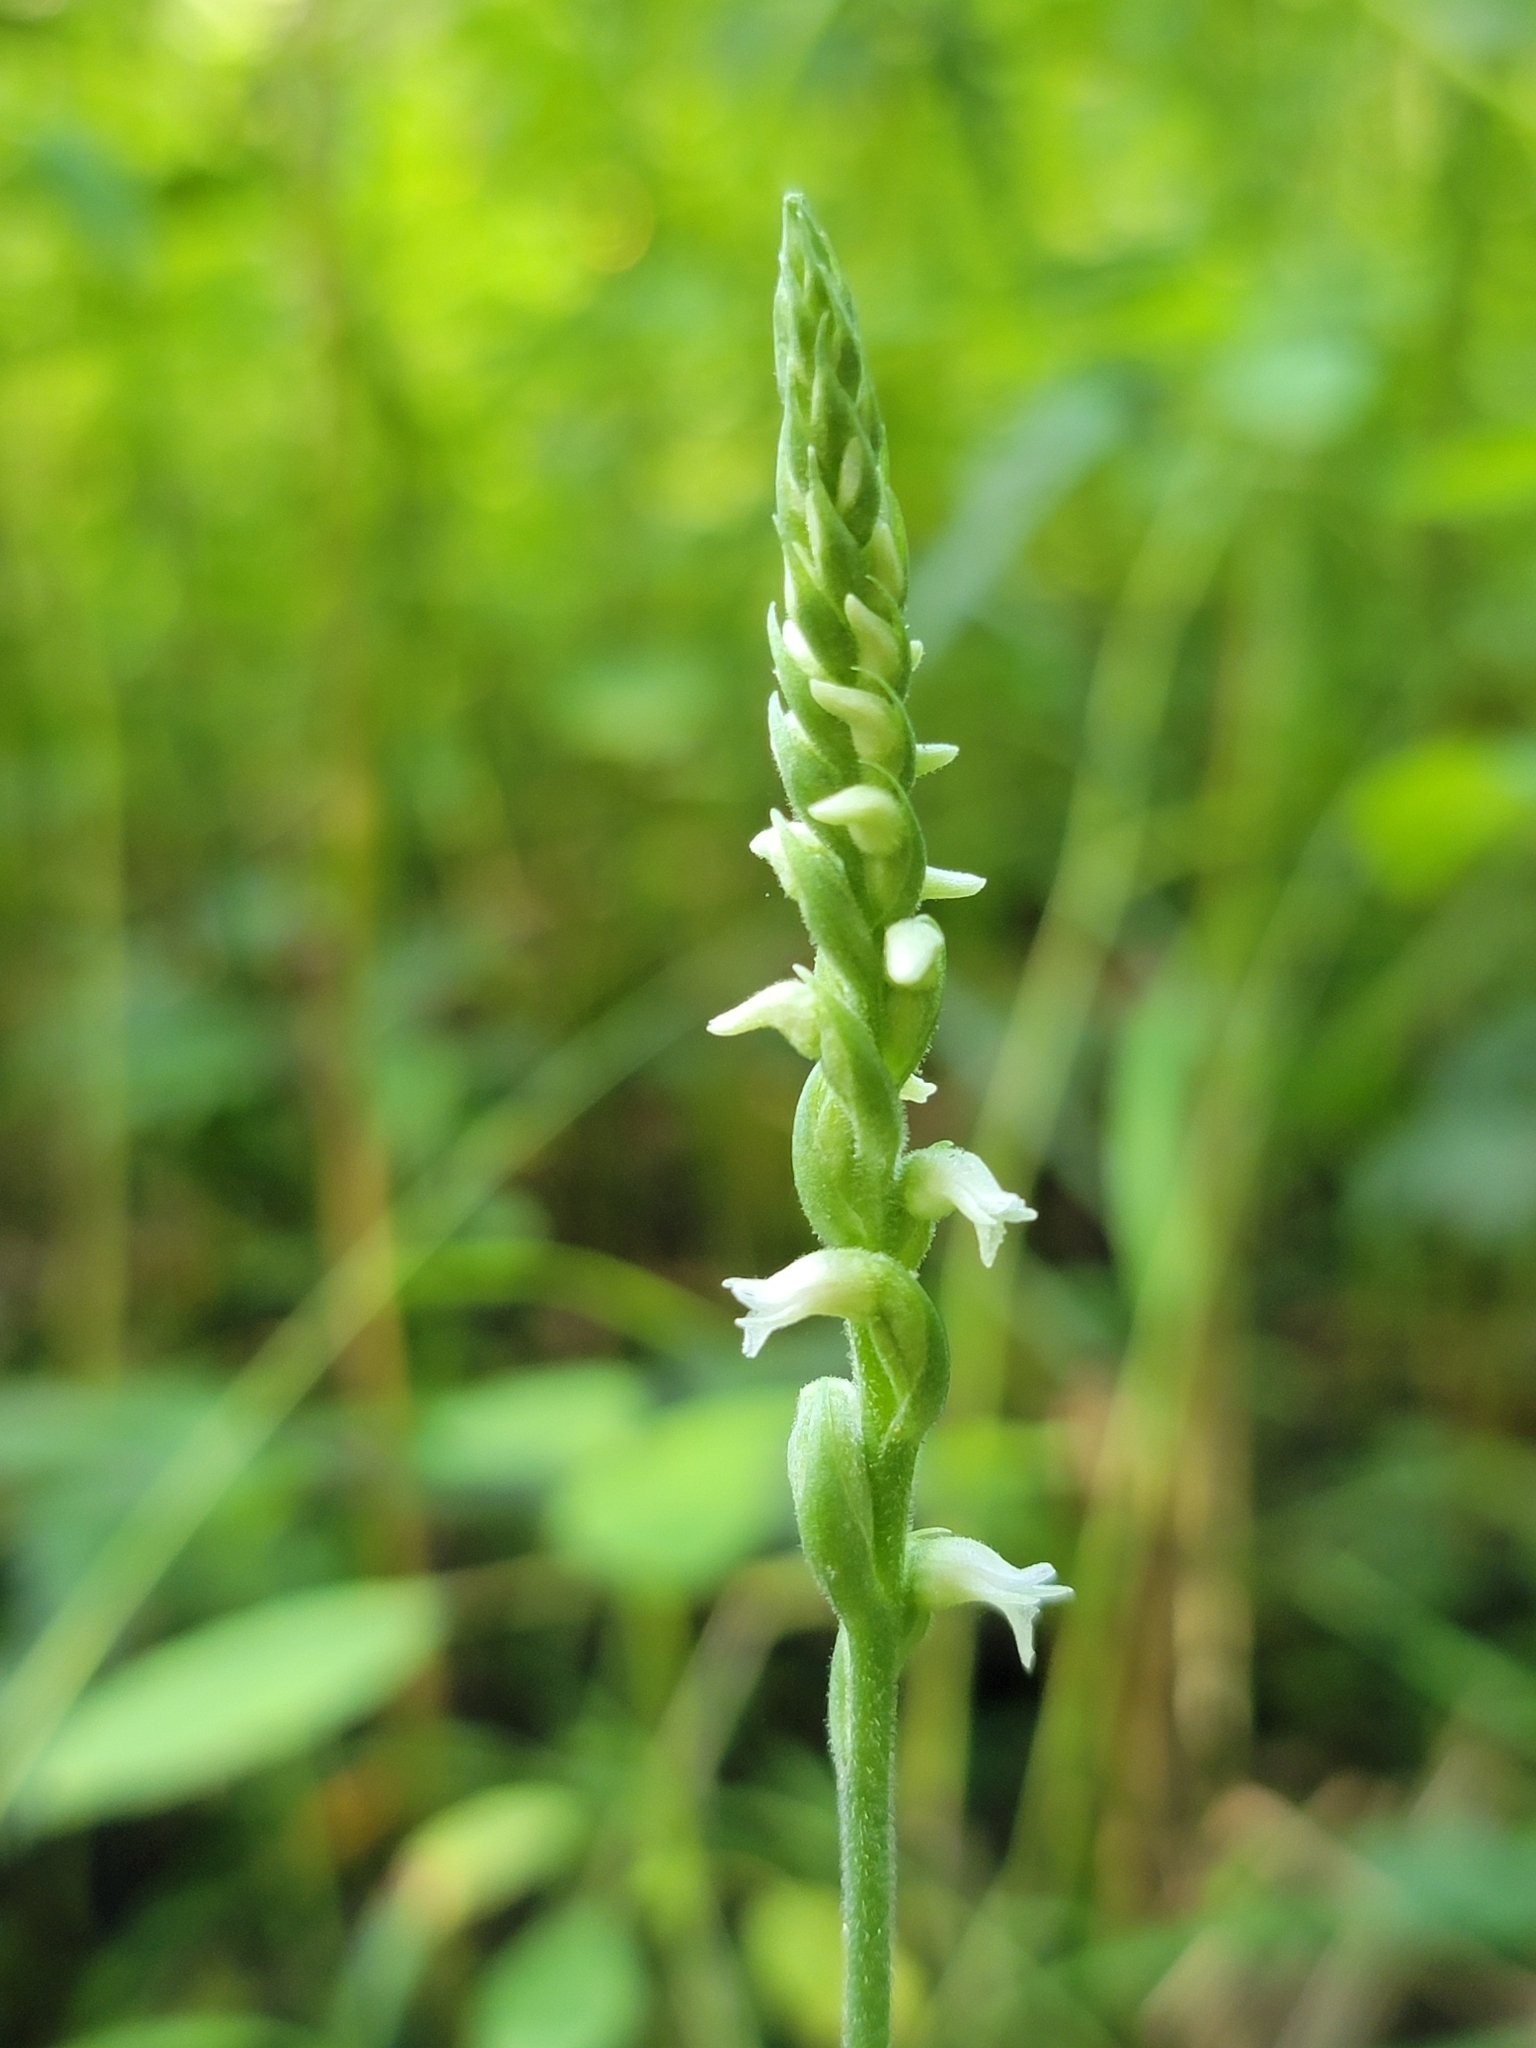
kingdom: Plantae
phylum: Tracheophyta
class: Liliopsida
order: Asparagales
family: Orchidaceae
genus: Spiranthes
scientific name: Spiranthes ovalis
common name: October ladies'-tresses
